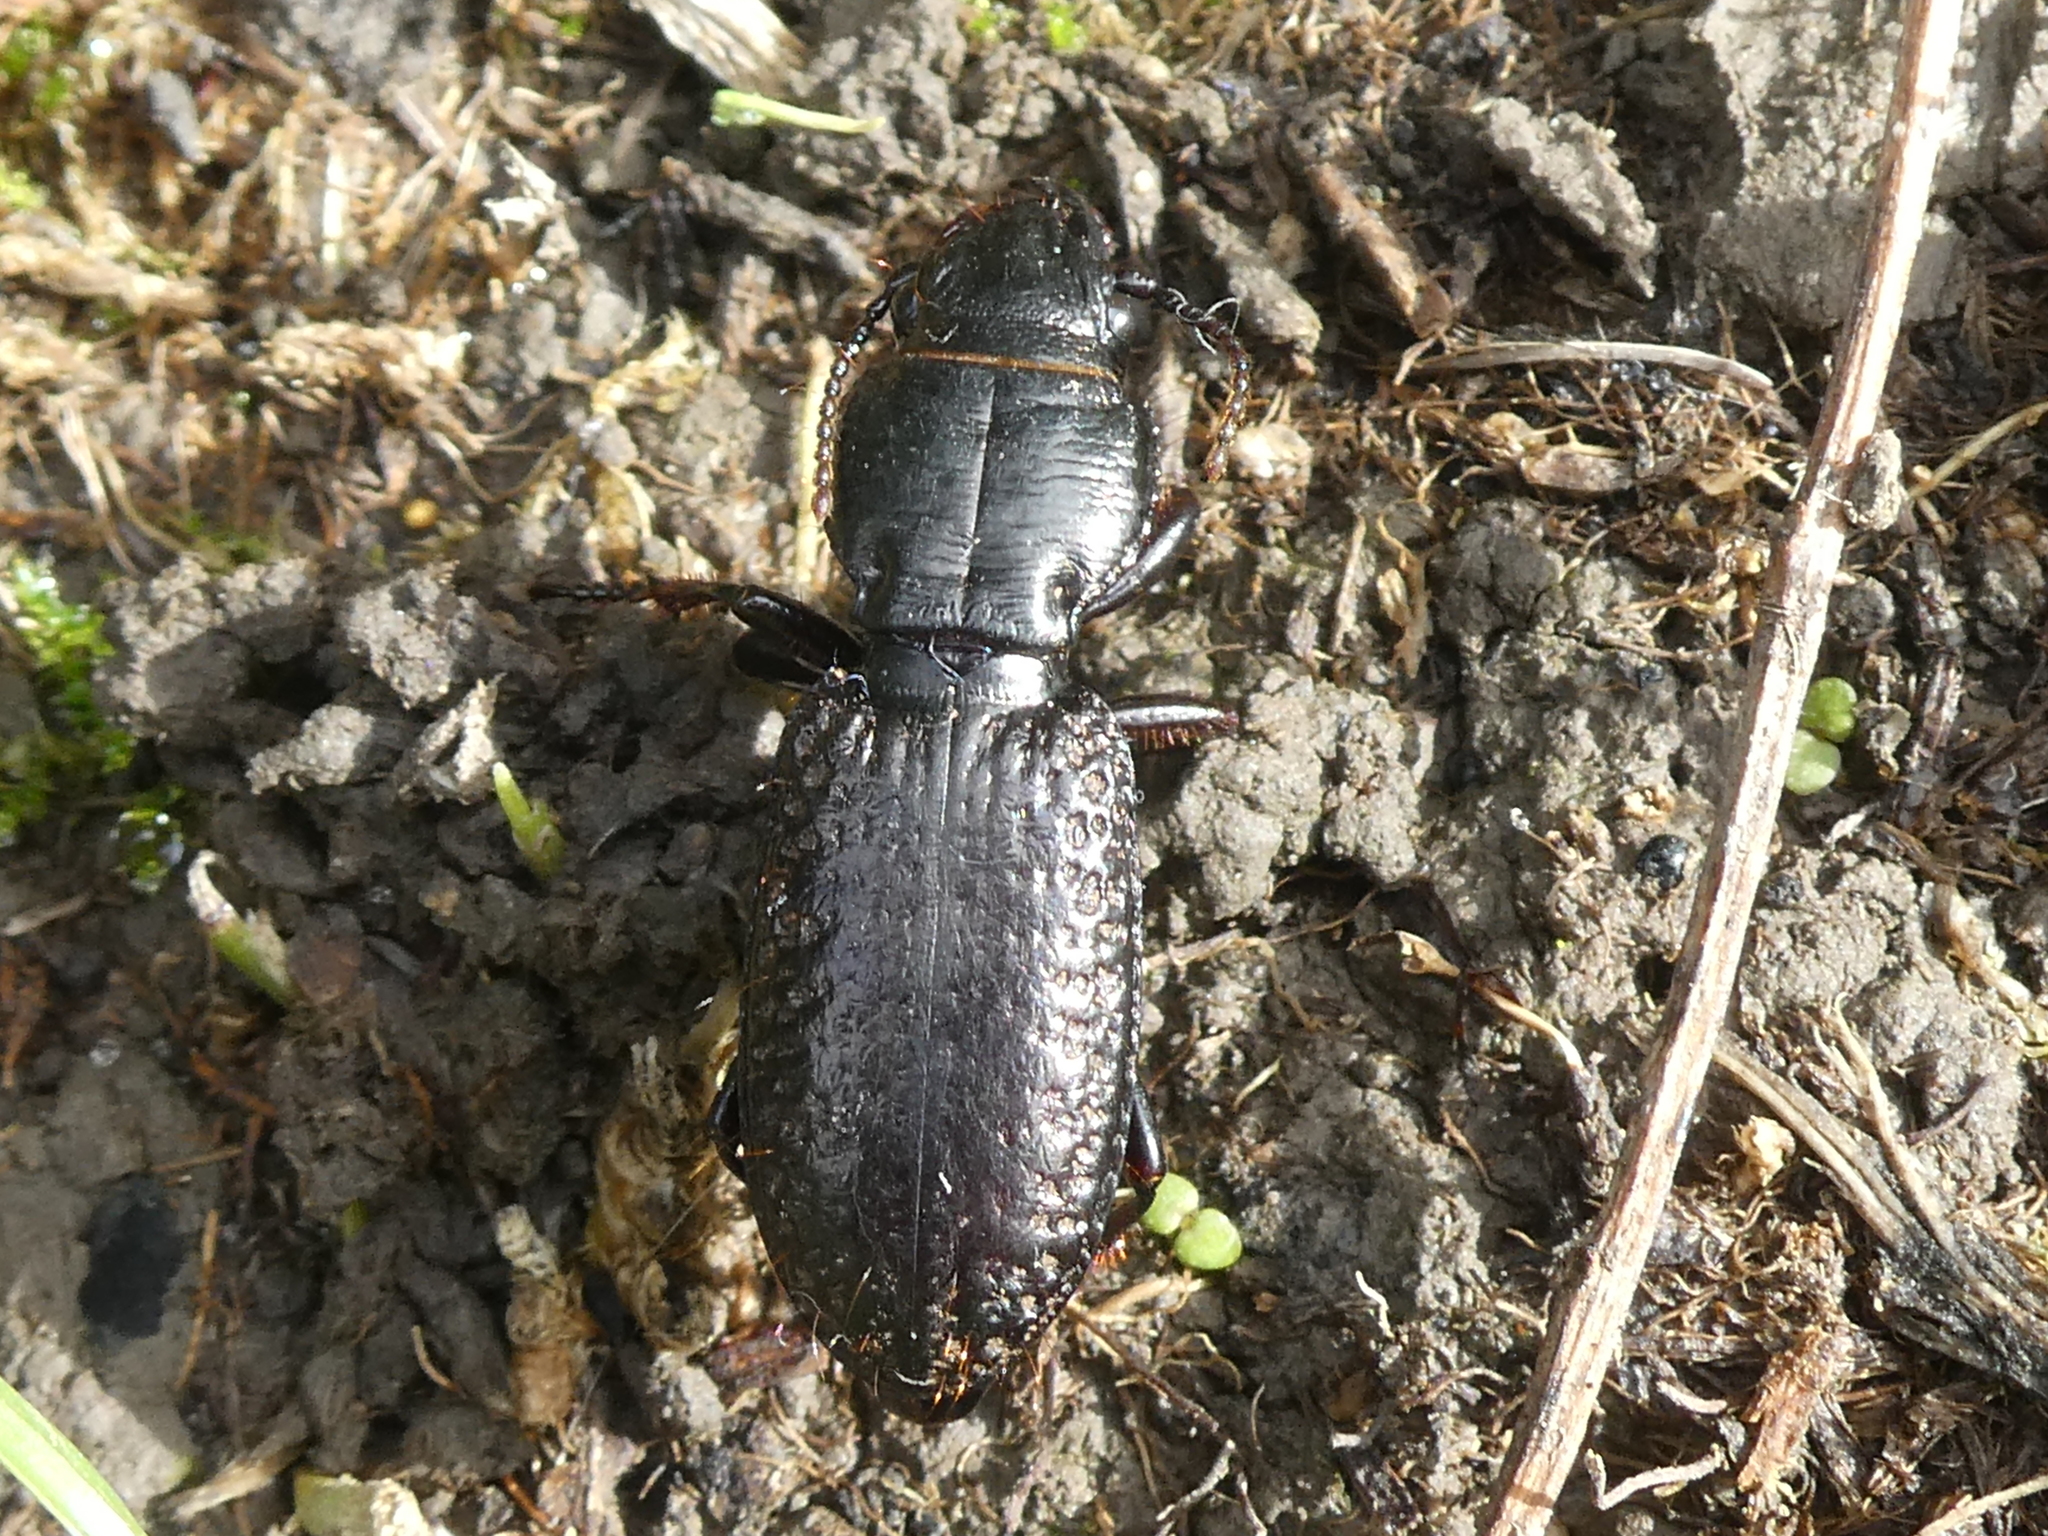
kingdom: Animalia
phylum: Arthropoda
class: Insecta
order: Coleoptera
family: Carabidae
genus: Mecodema
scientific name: Mecodema crenicolle
